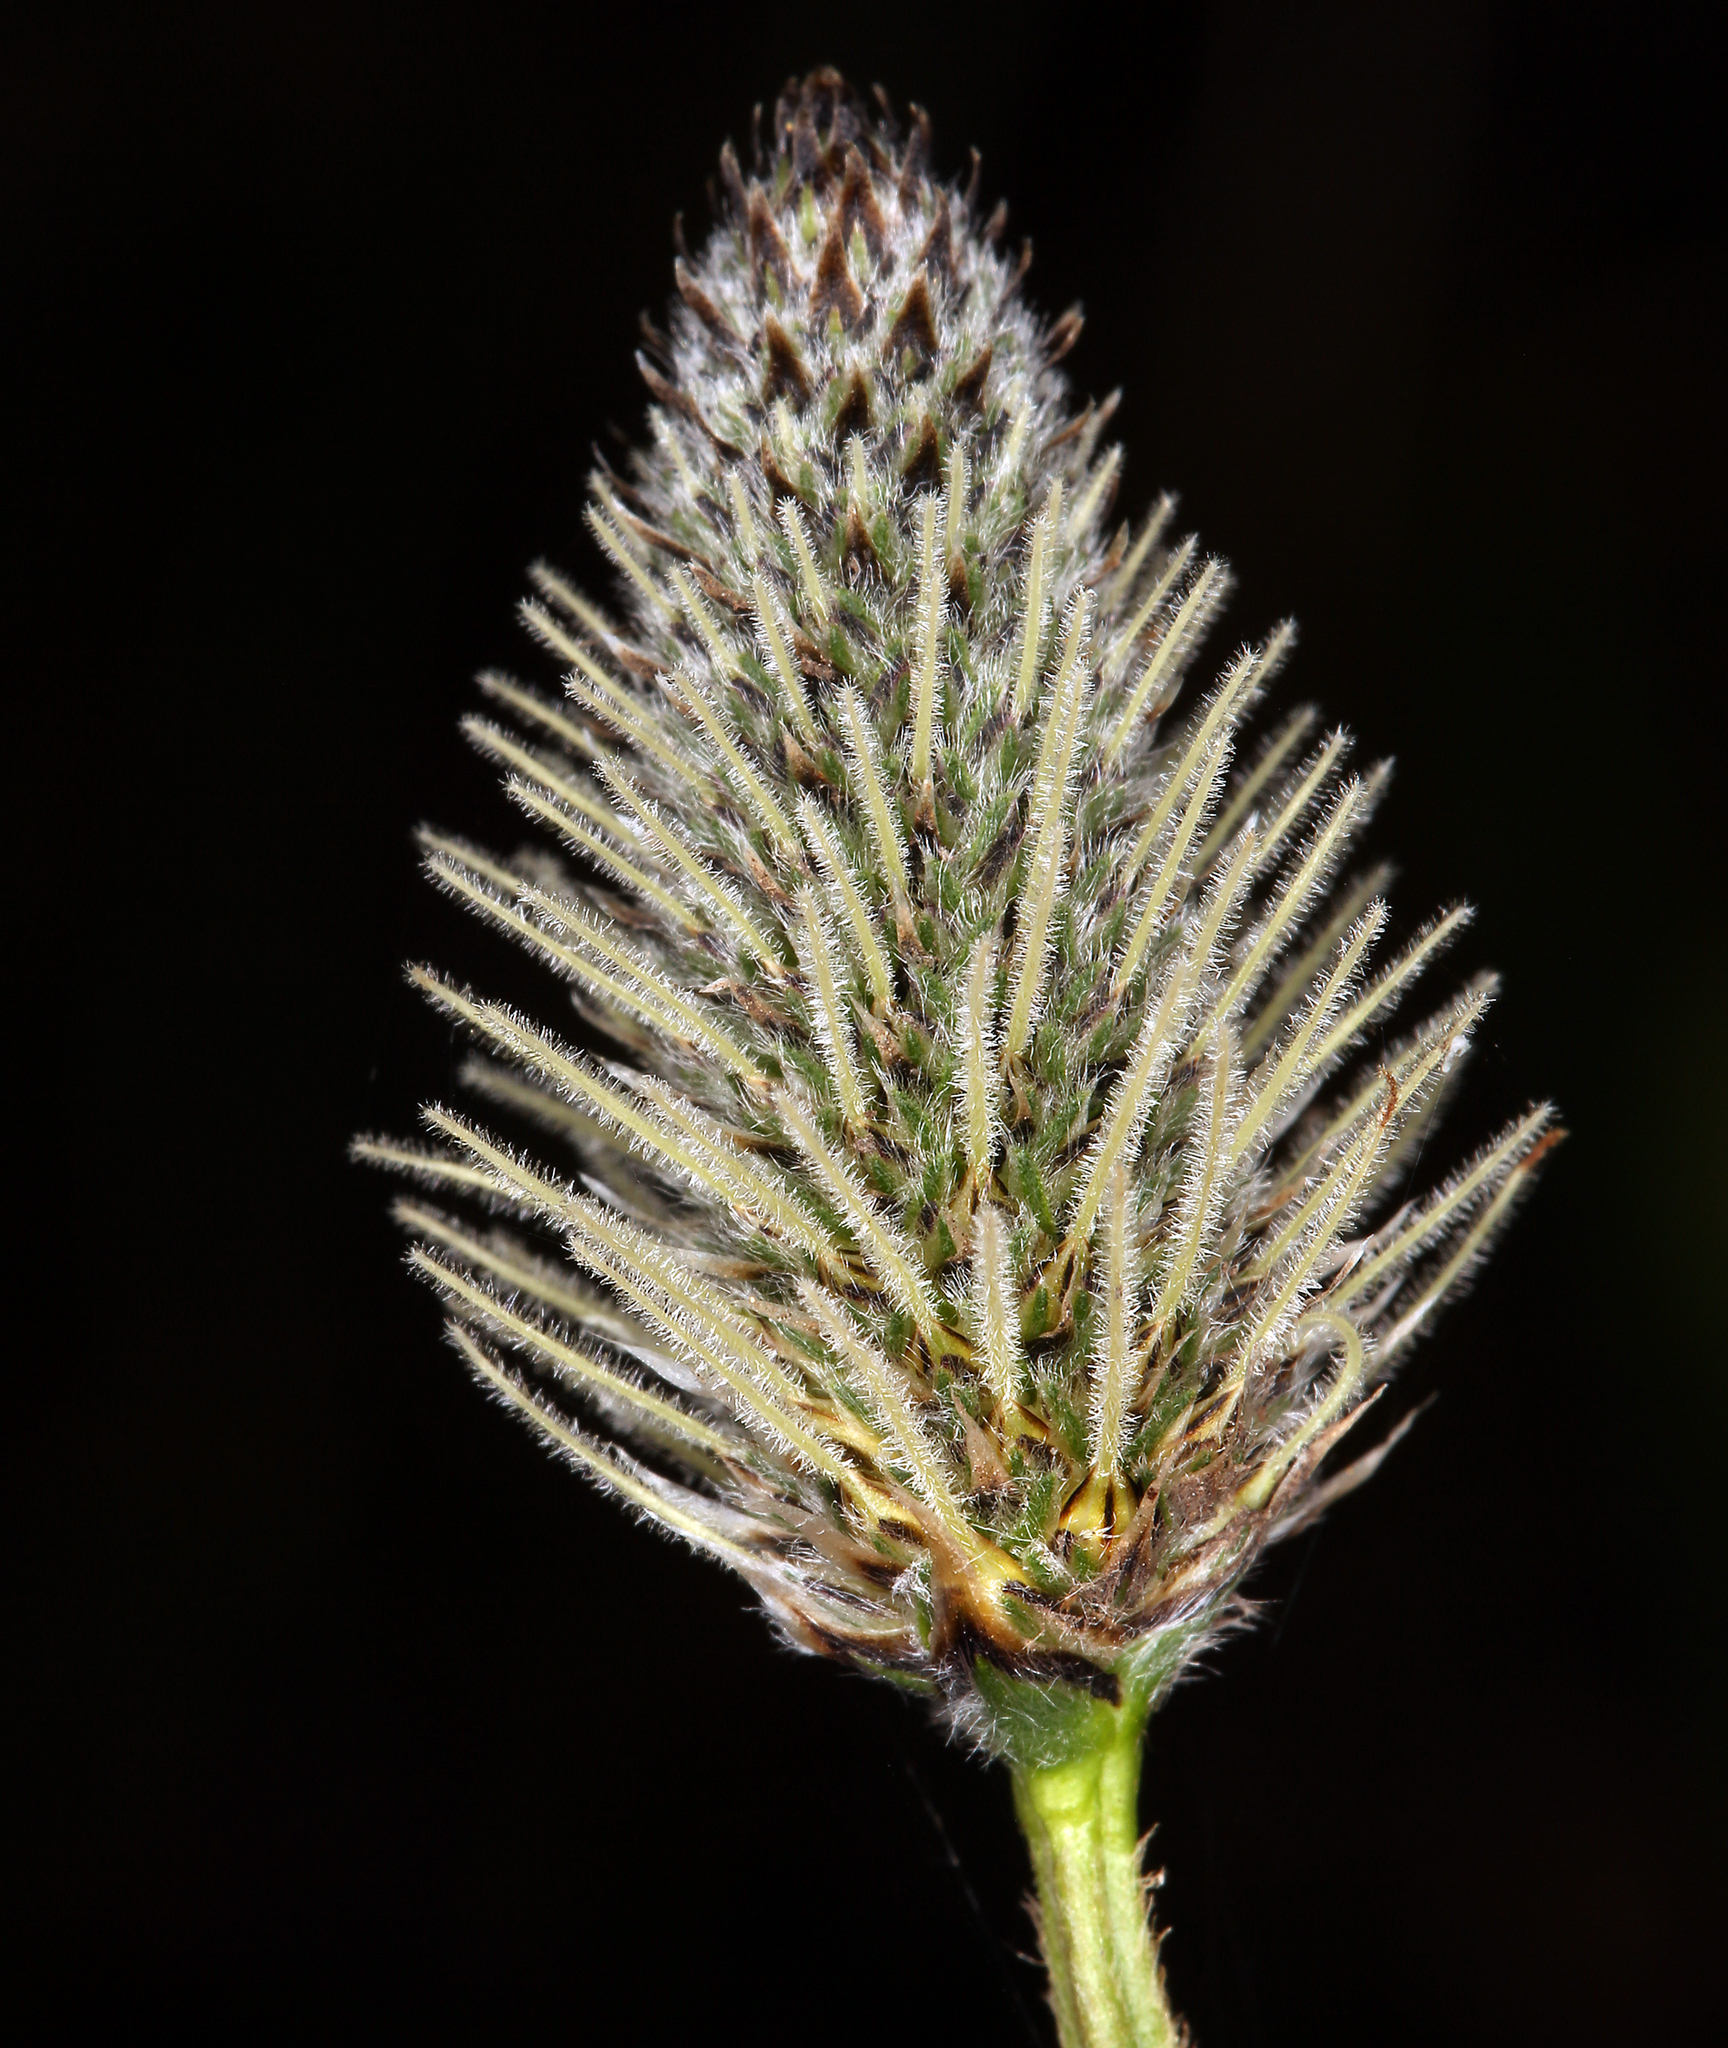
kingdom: Plantae
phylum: Tracheophyta
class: Magnoliopsida
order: Lamiales
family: Plantaginaceae
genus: Plantago
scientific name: Plantago lanceolata
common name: Ribwort plantain
